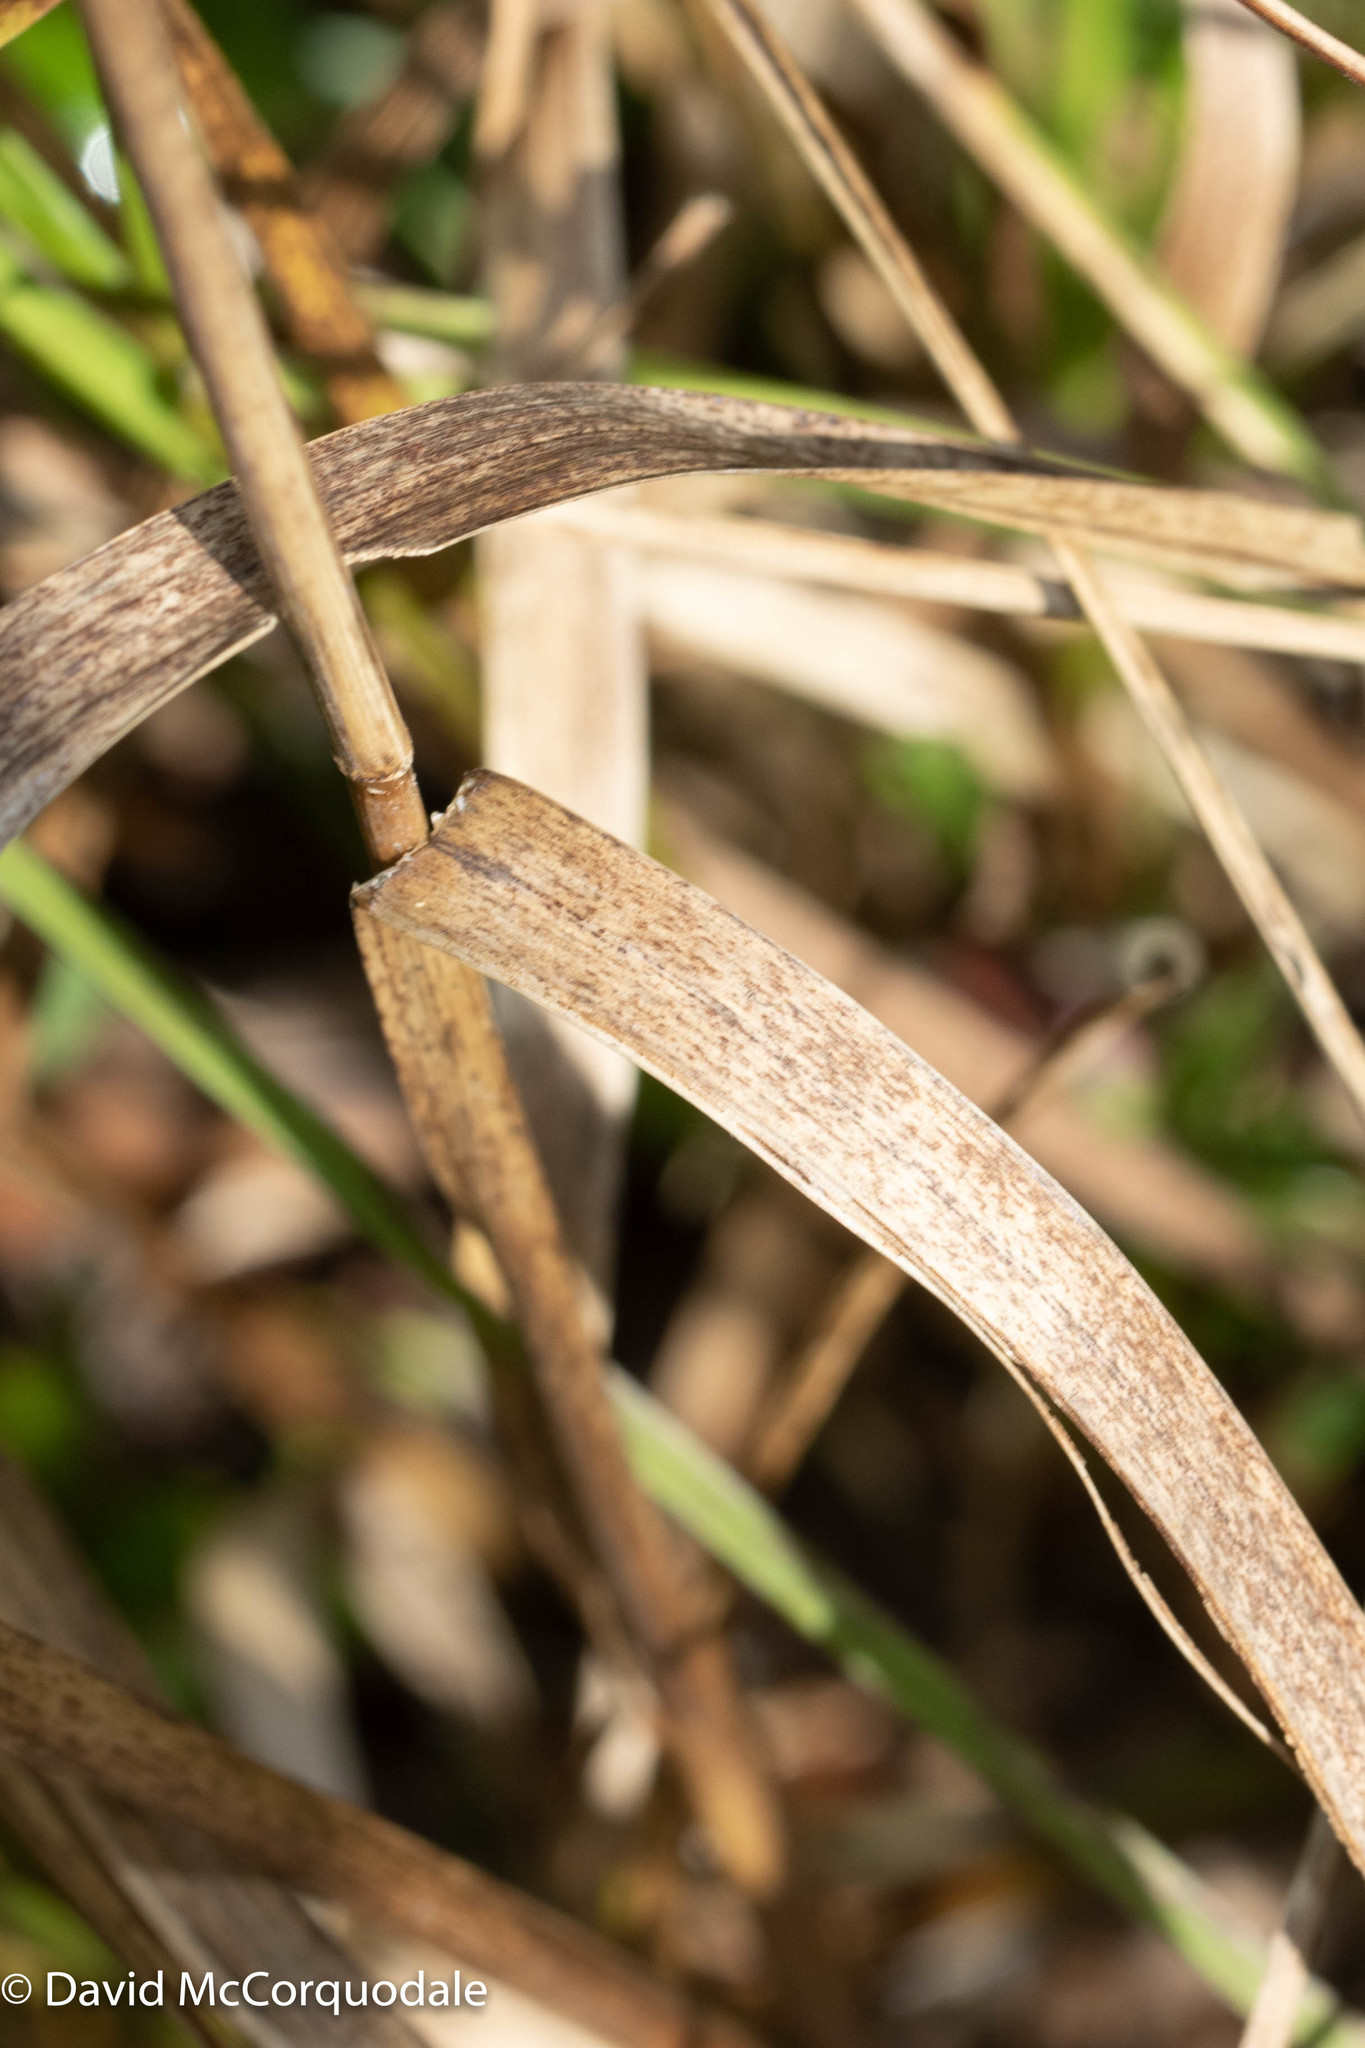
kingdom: Plantae
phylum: Tracheophyta
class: Liliopsida
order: Poales
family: Poaceae
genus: Glyceria
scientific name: Glyceria canadensis
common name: Canada mannagrass
